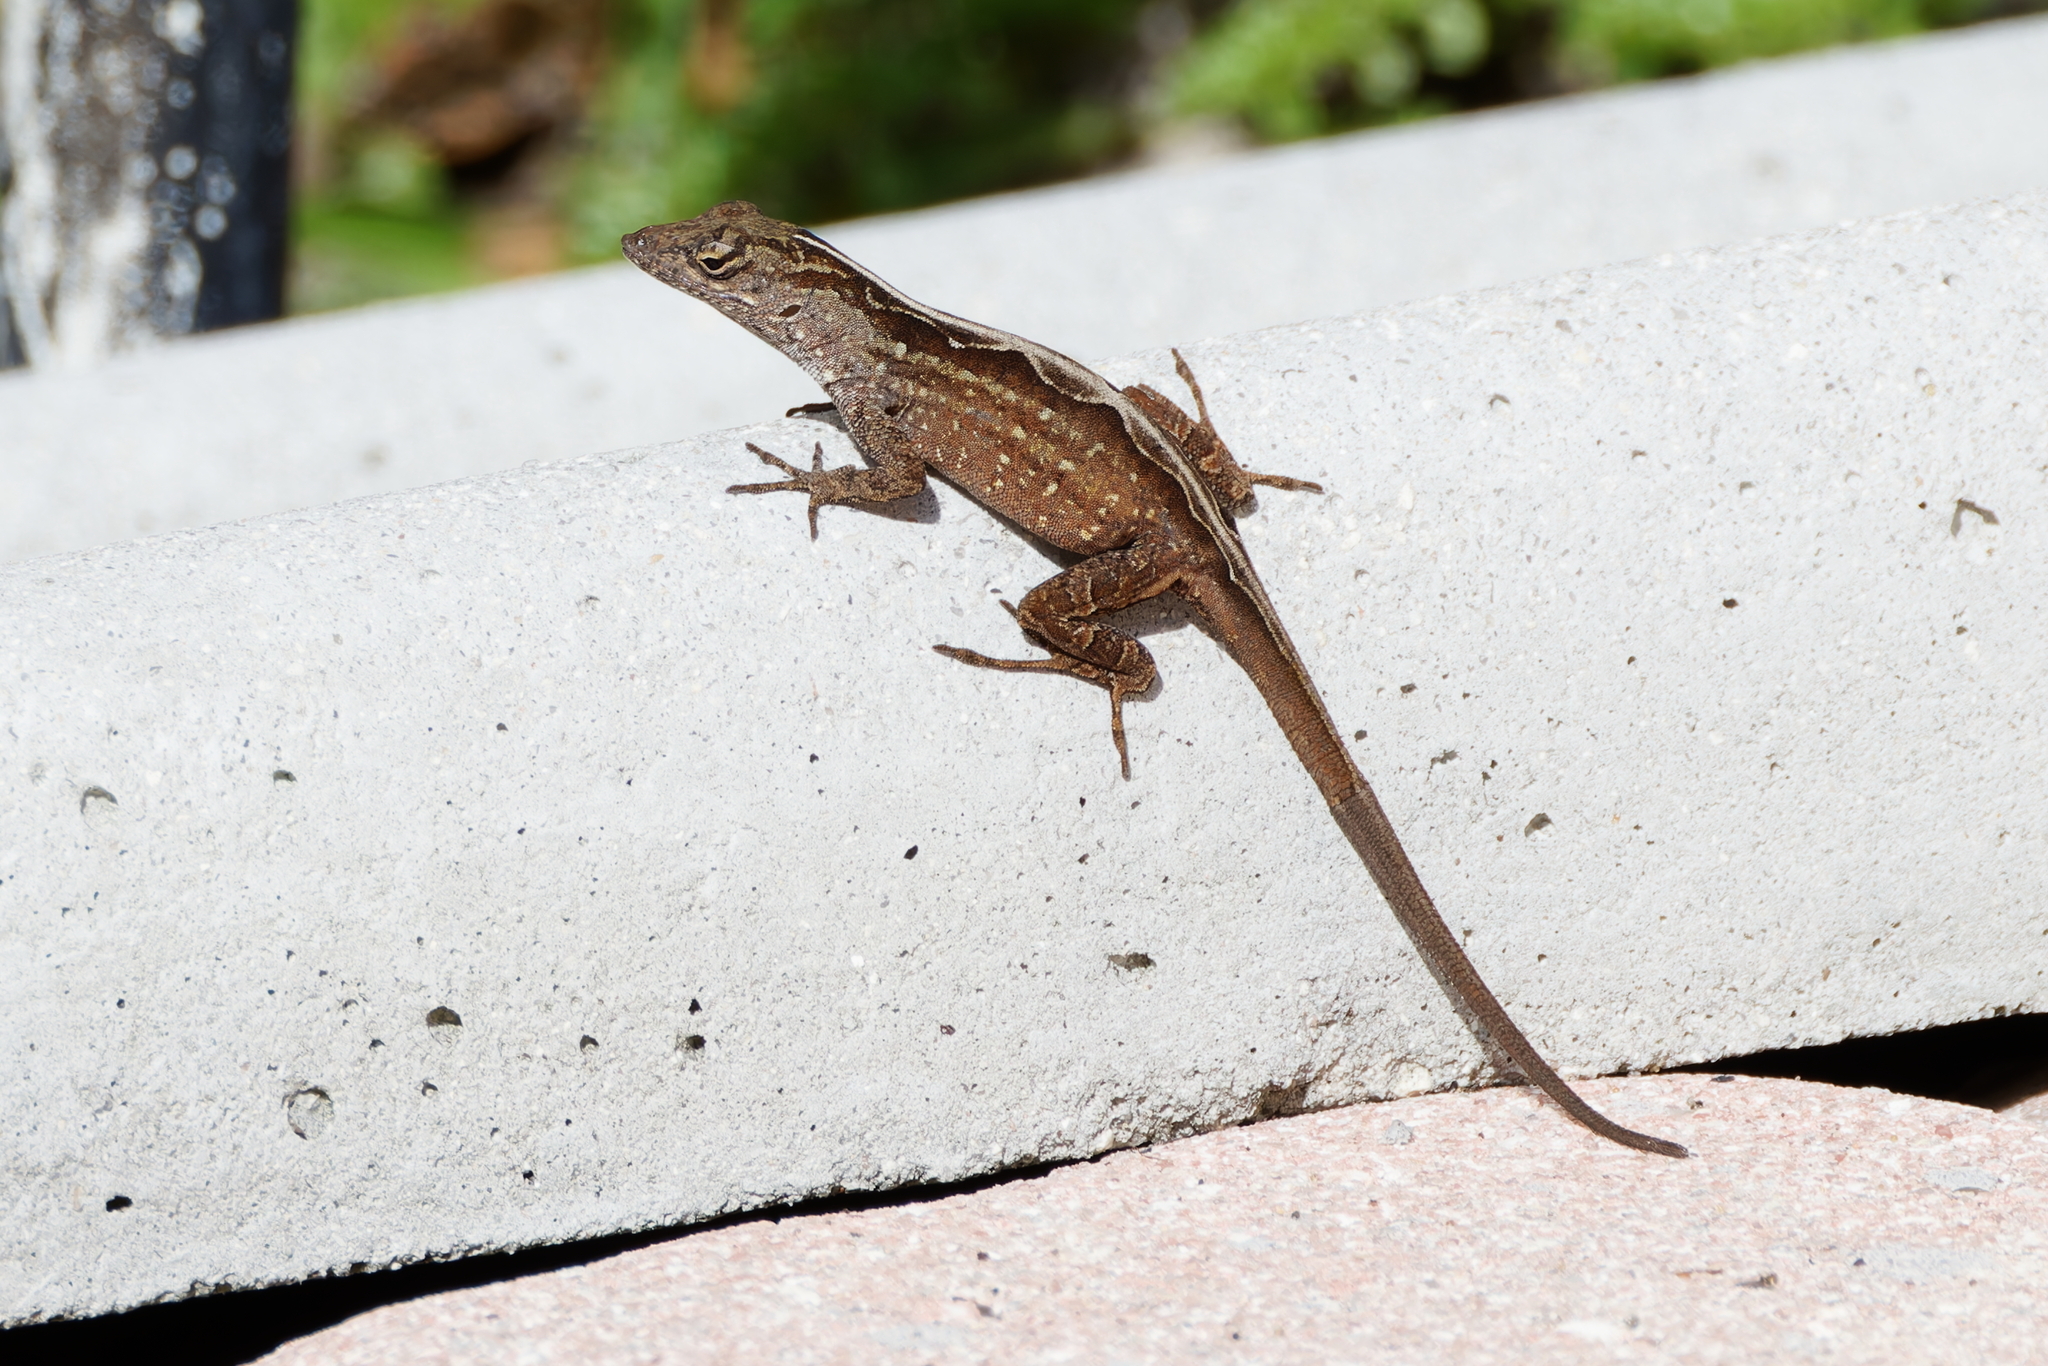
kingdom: Animalia
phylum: Chordata
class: Squamata
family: Dactyloidae
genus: Anolis
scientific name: Anolis sagrei
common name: Brown anole
